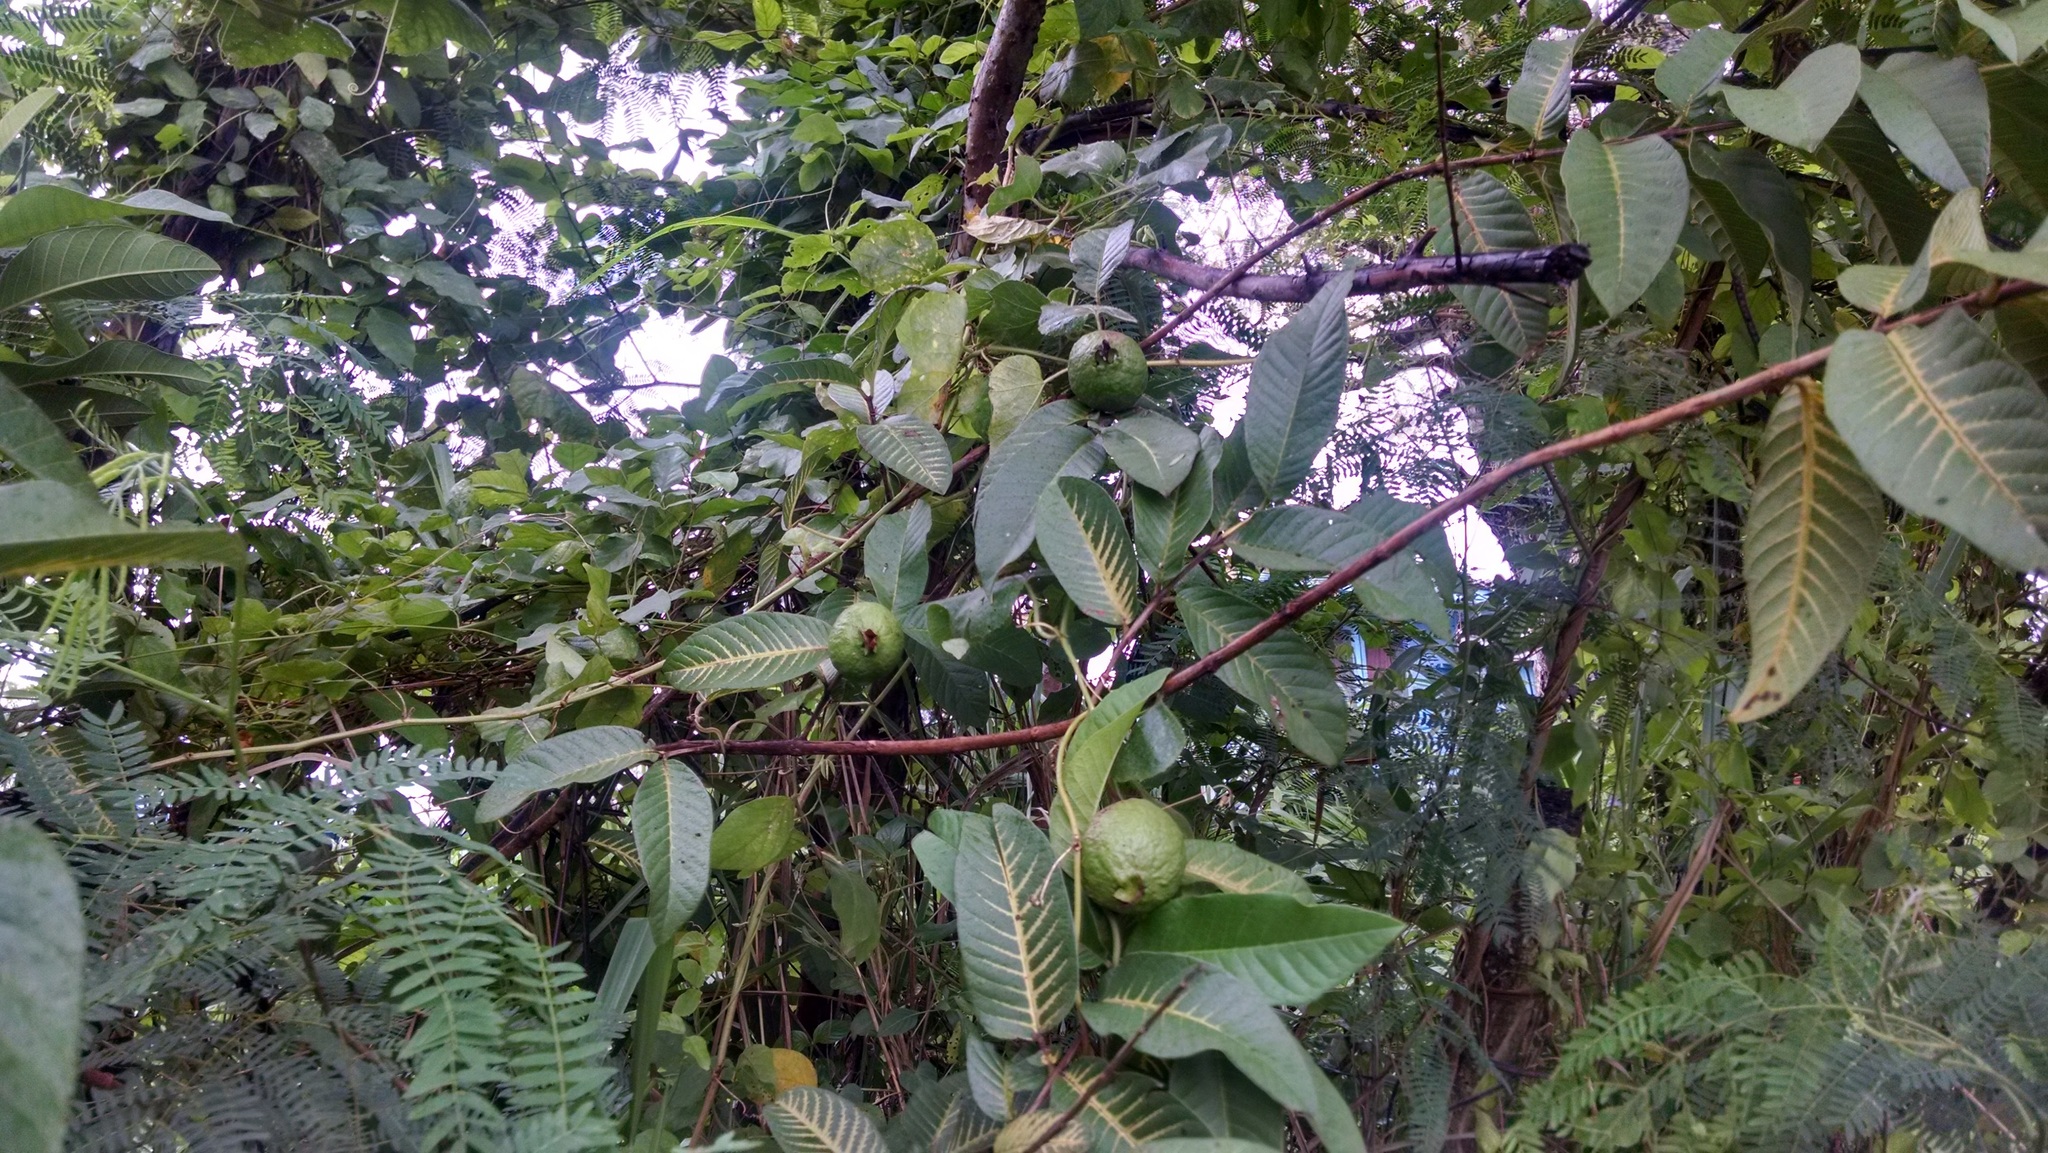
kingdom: Plantae
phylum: Tracheophyta
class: Magnoliopsida
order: Myrtales
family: Myrtaceae
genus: Psidium
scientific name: Psidium guajava
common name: Guava
